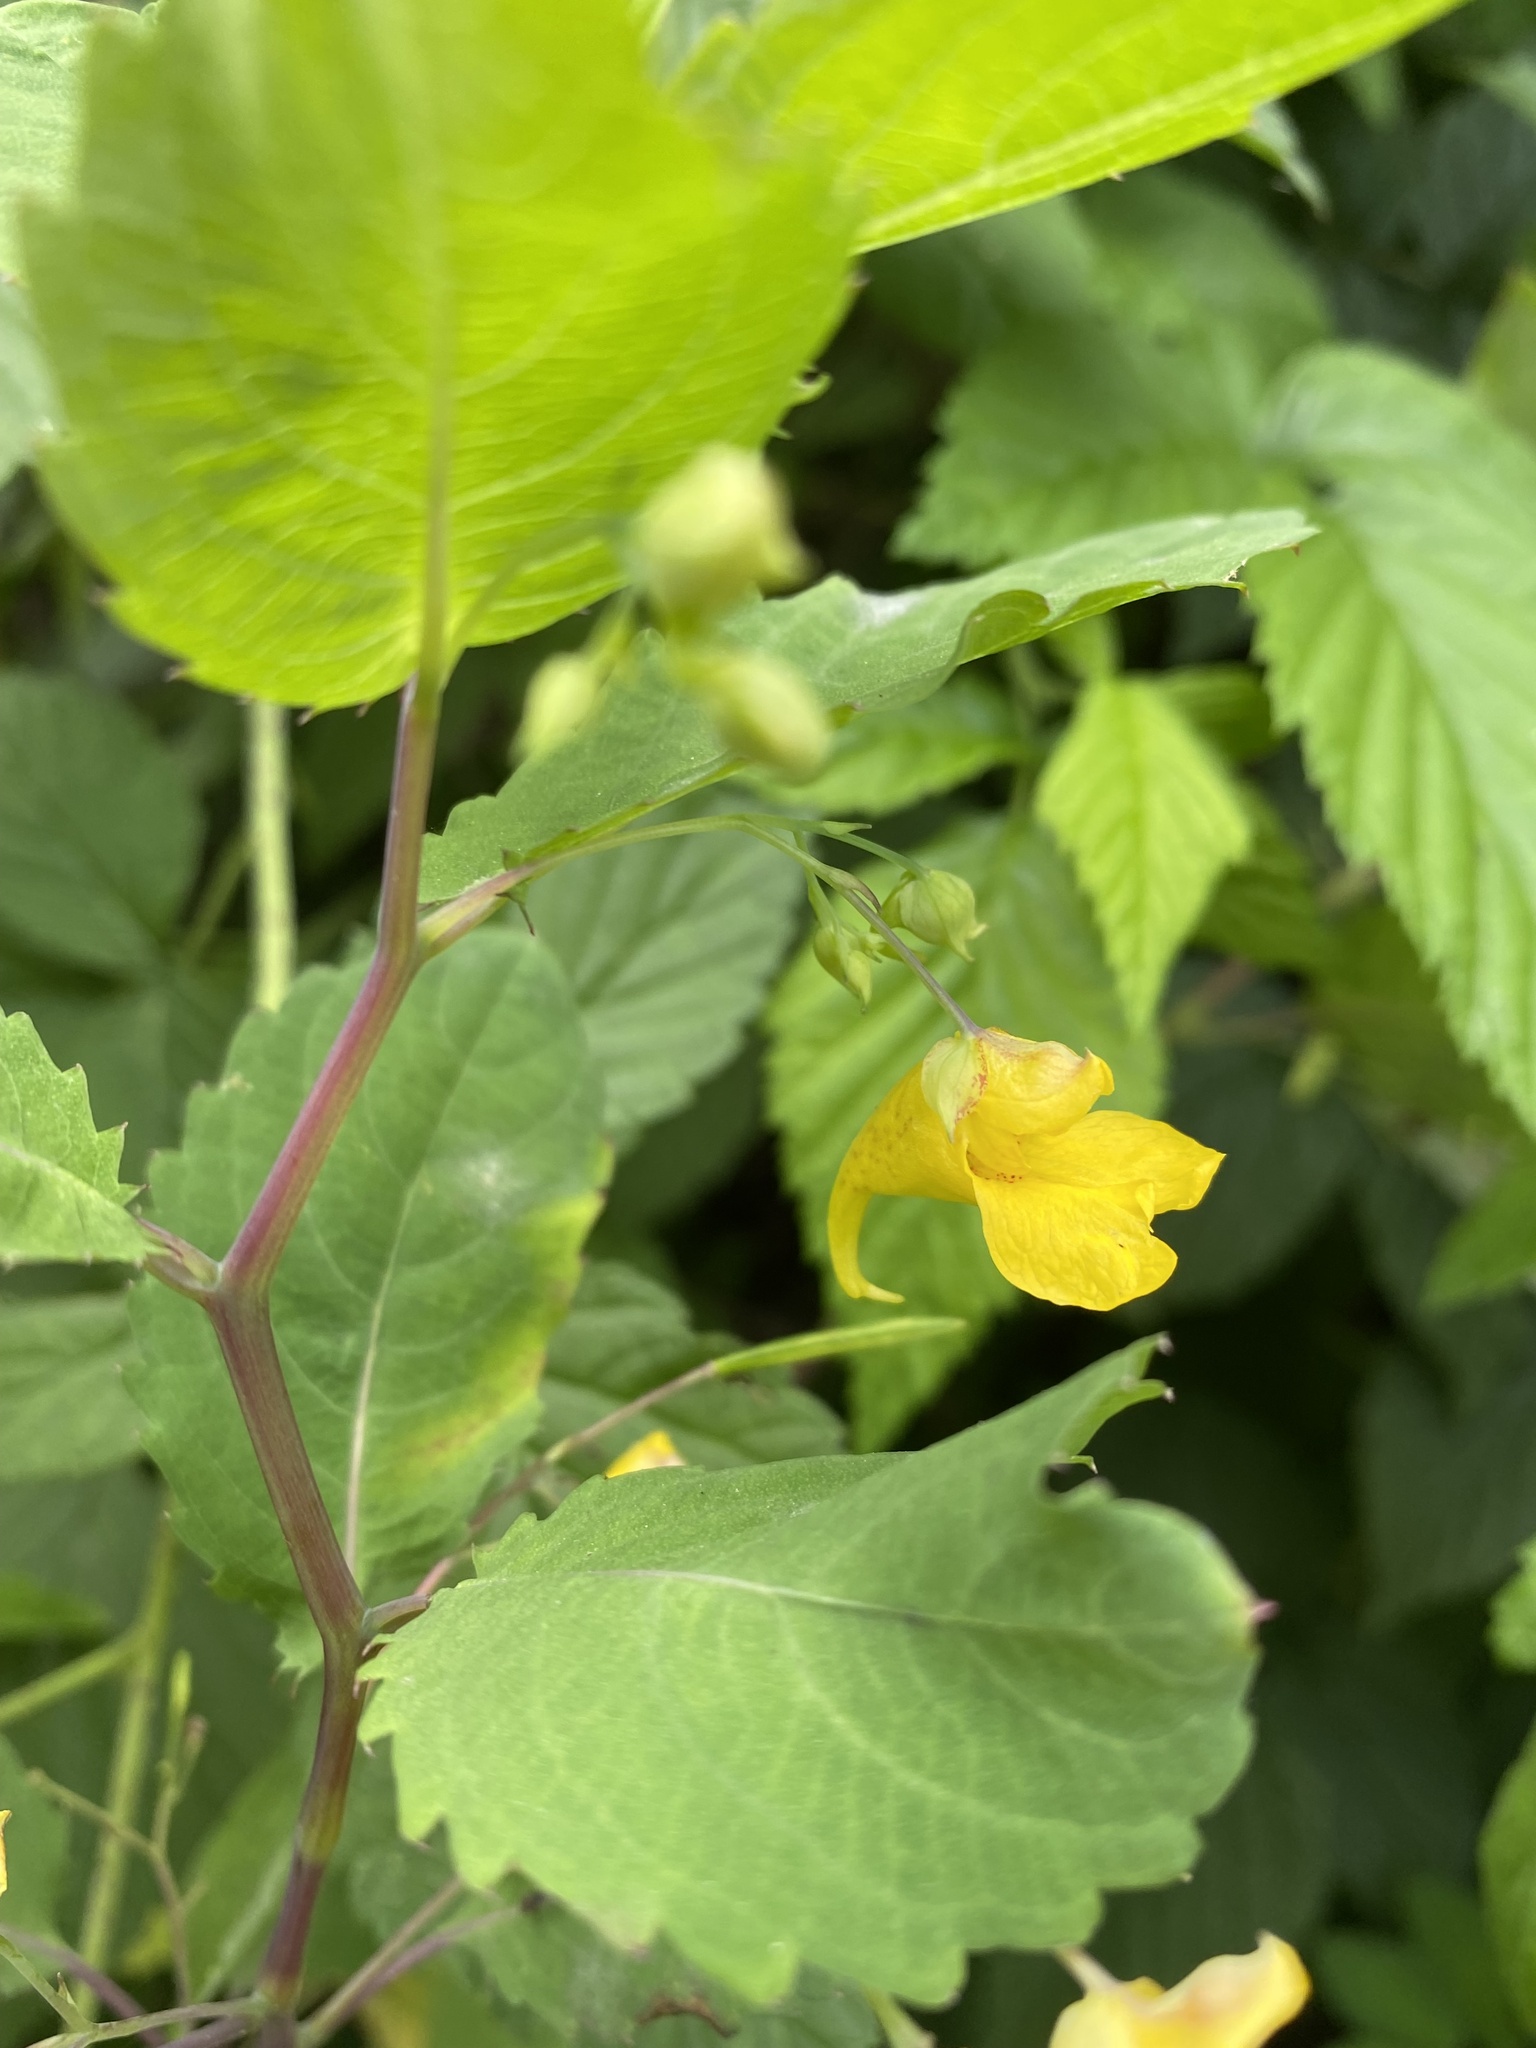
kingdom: Plantae
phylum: Tracheophyta
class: Magnoliopsida
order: Ericales
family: Balsaminaceae
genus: Impatiens
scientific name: Impatiens noli-tangere
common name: Touch-me-not balsam
